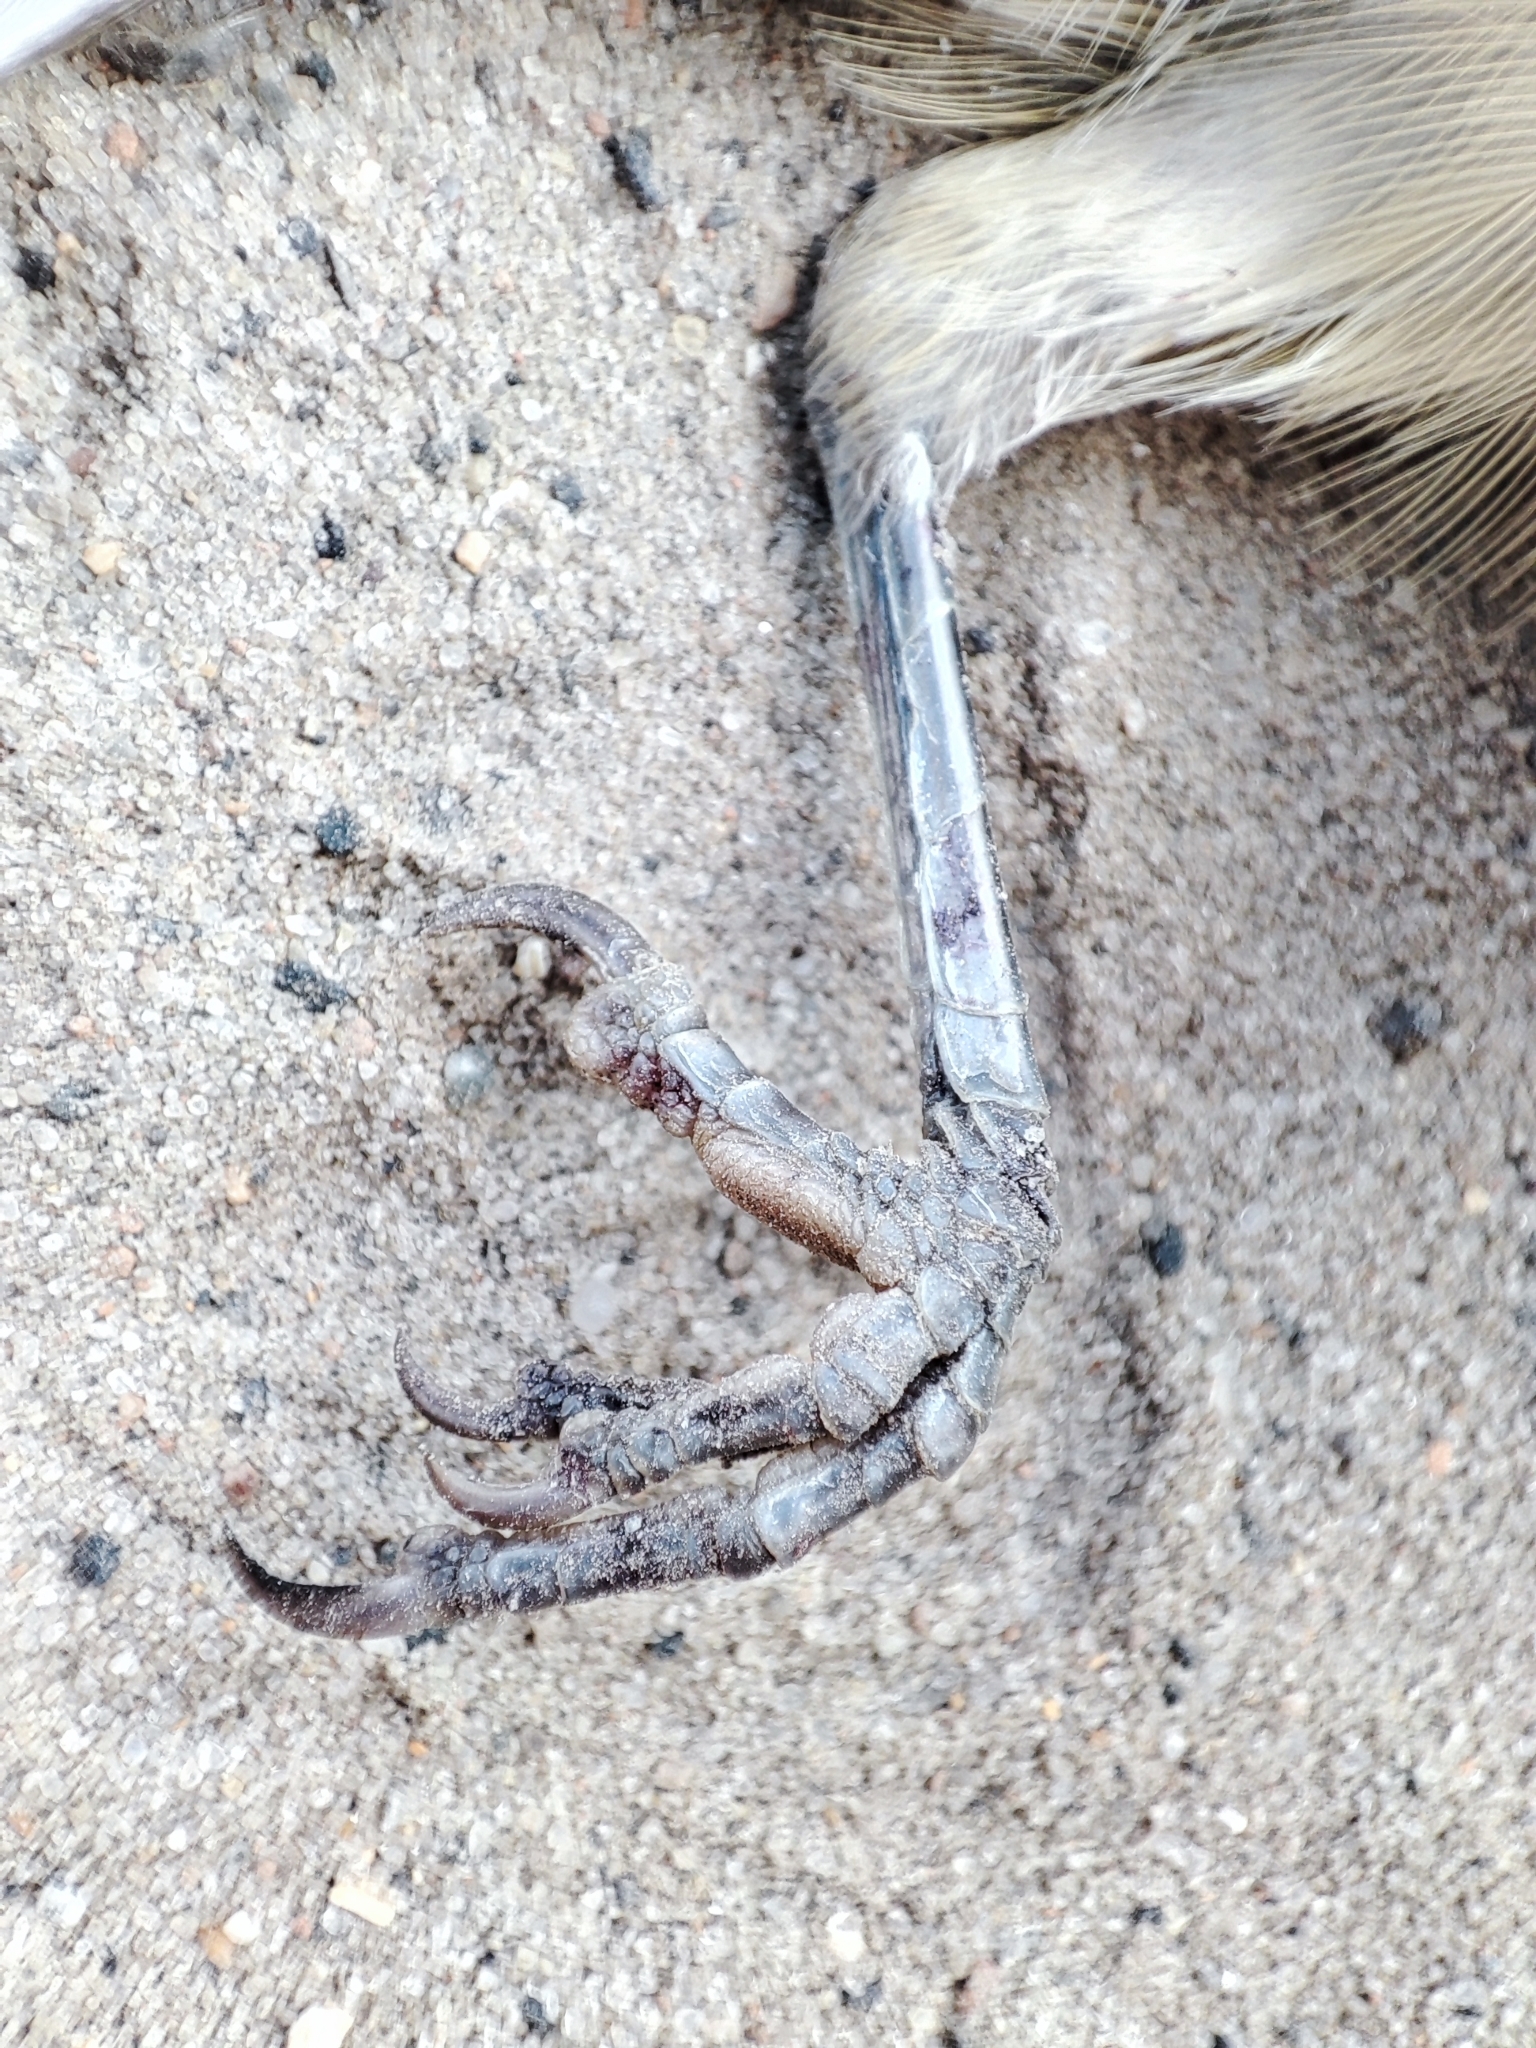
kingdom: Animalia
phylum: Chordata
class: Aves
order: Passeriformes
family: Sylviidae
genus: Sylvia
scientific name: Sylvia atricapilla
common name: Eurasian blackcap
